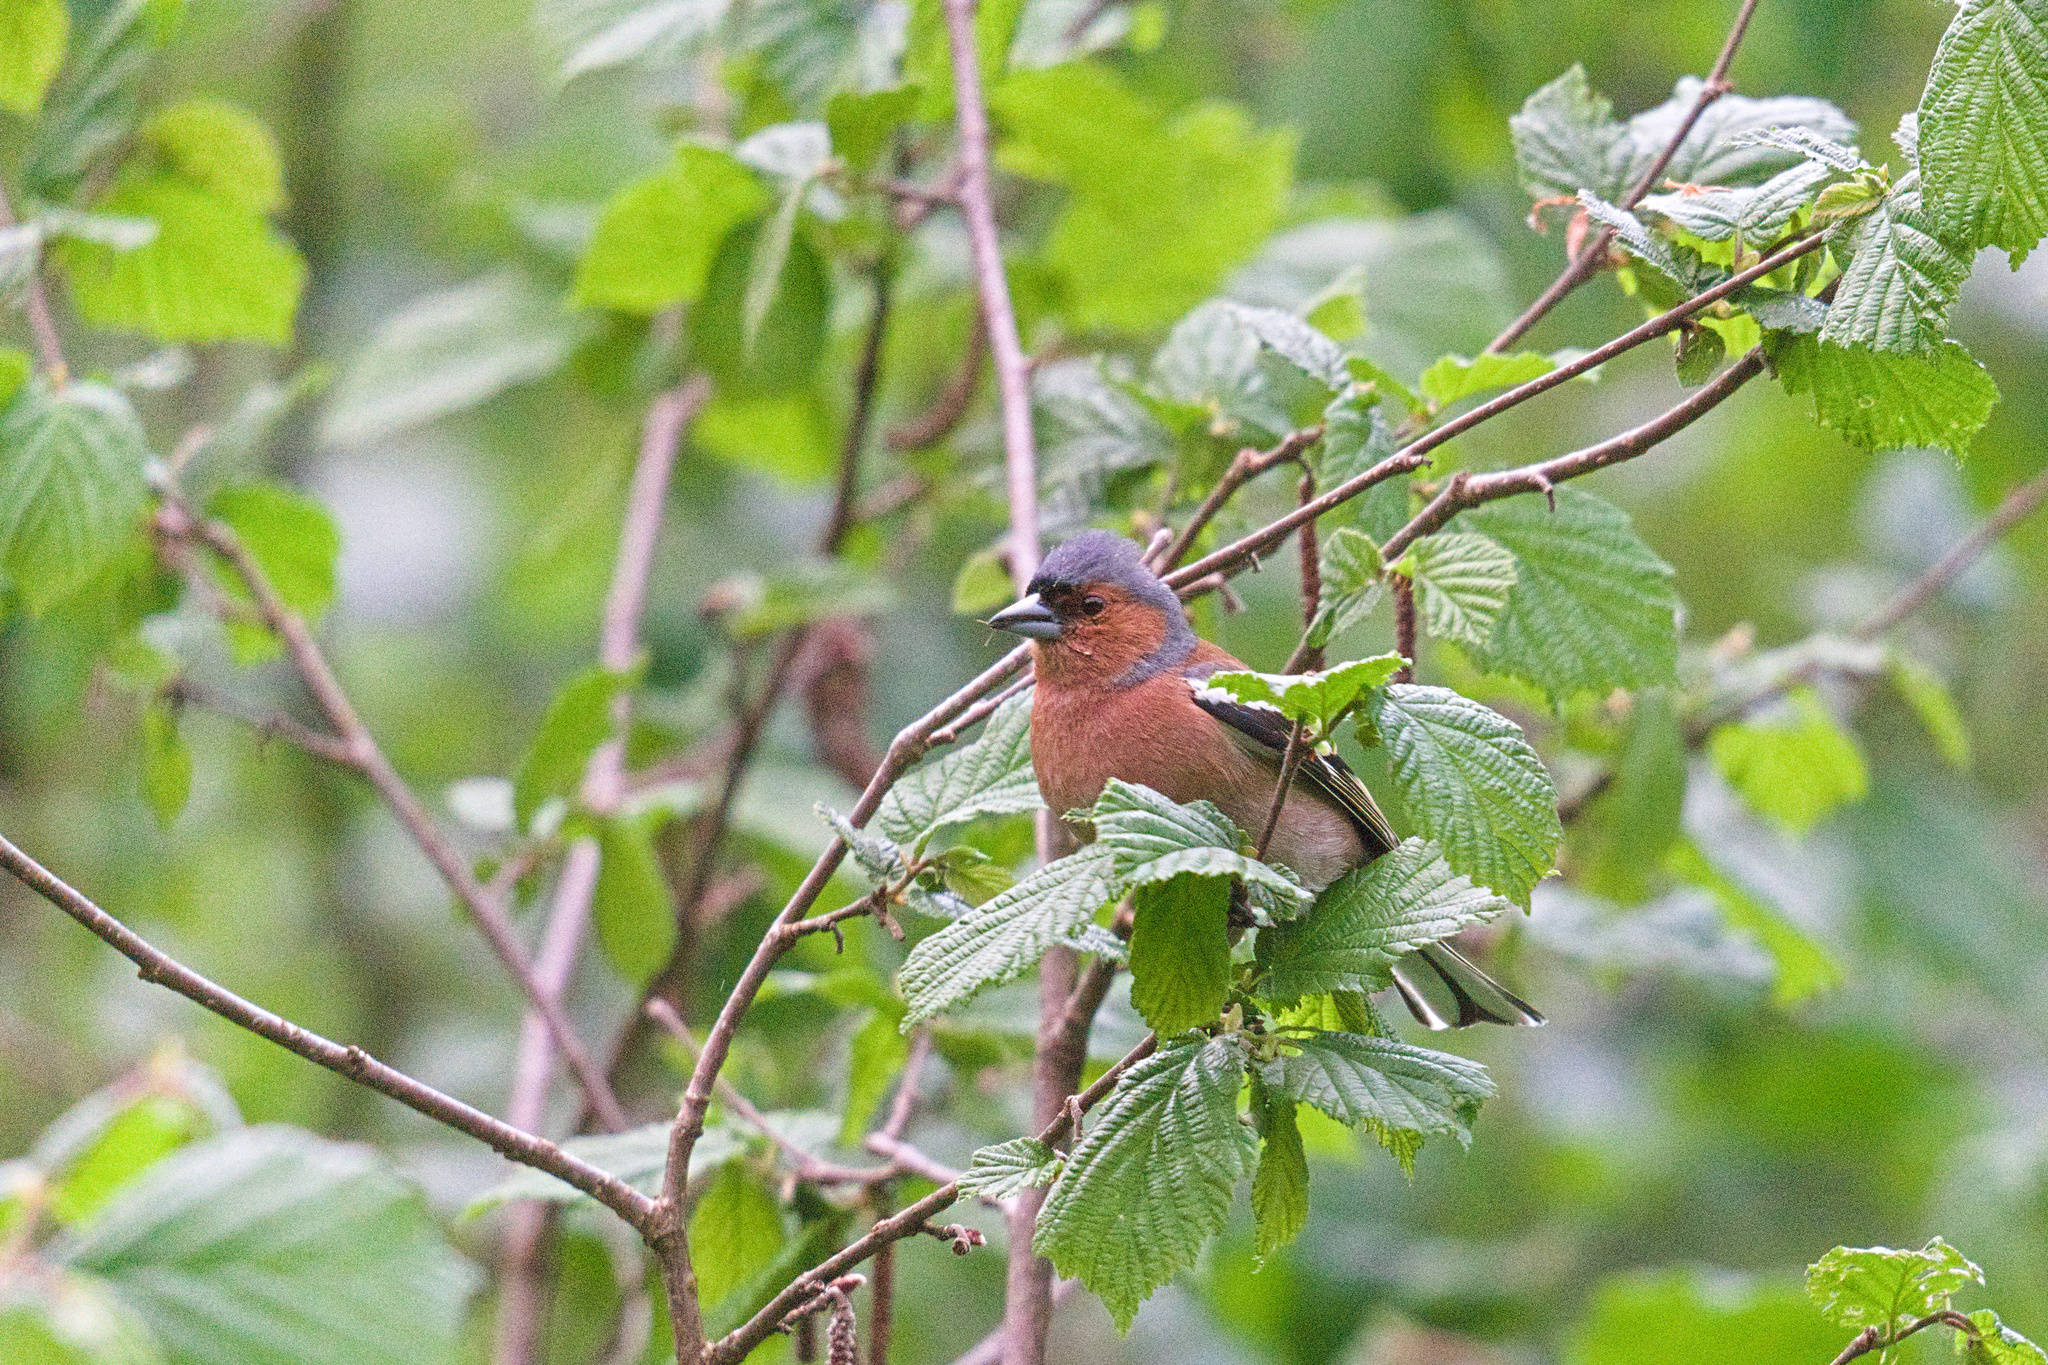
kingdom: Animalia
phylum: Chordata
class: Aves
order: Passeriformes
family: Fringillidae
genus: Fringilla
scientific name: Fringilla coelebs
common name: Common chaffinch
